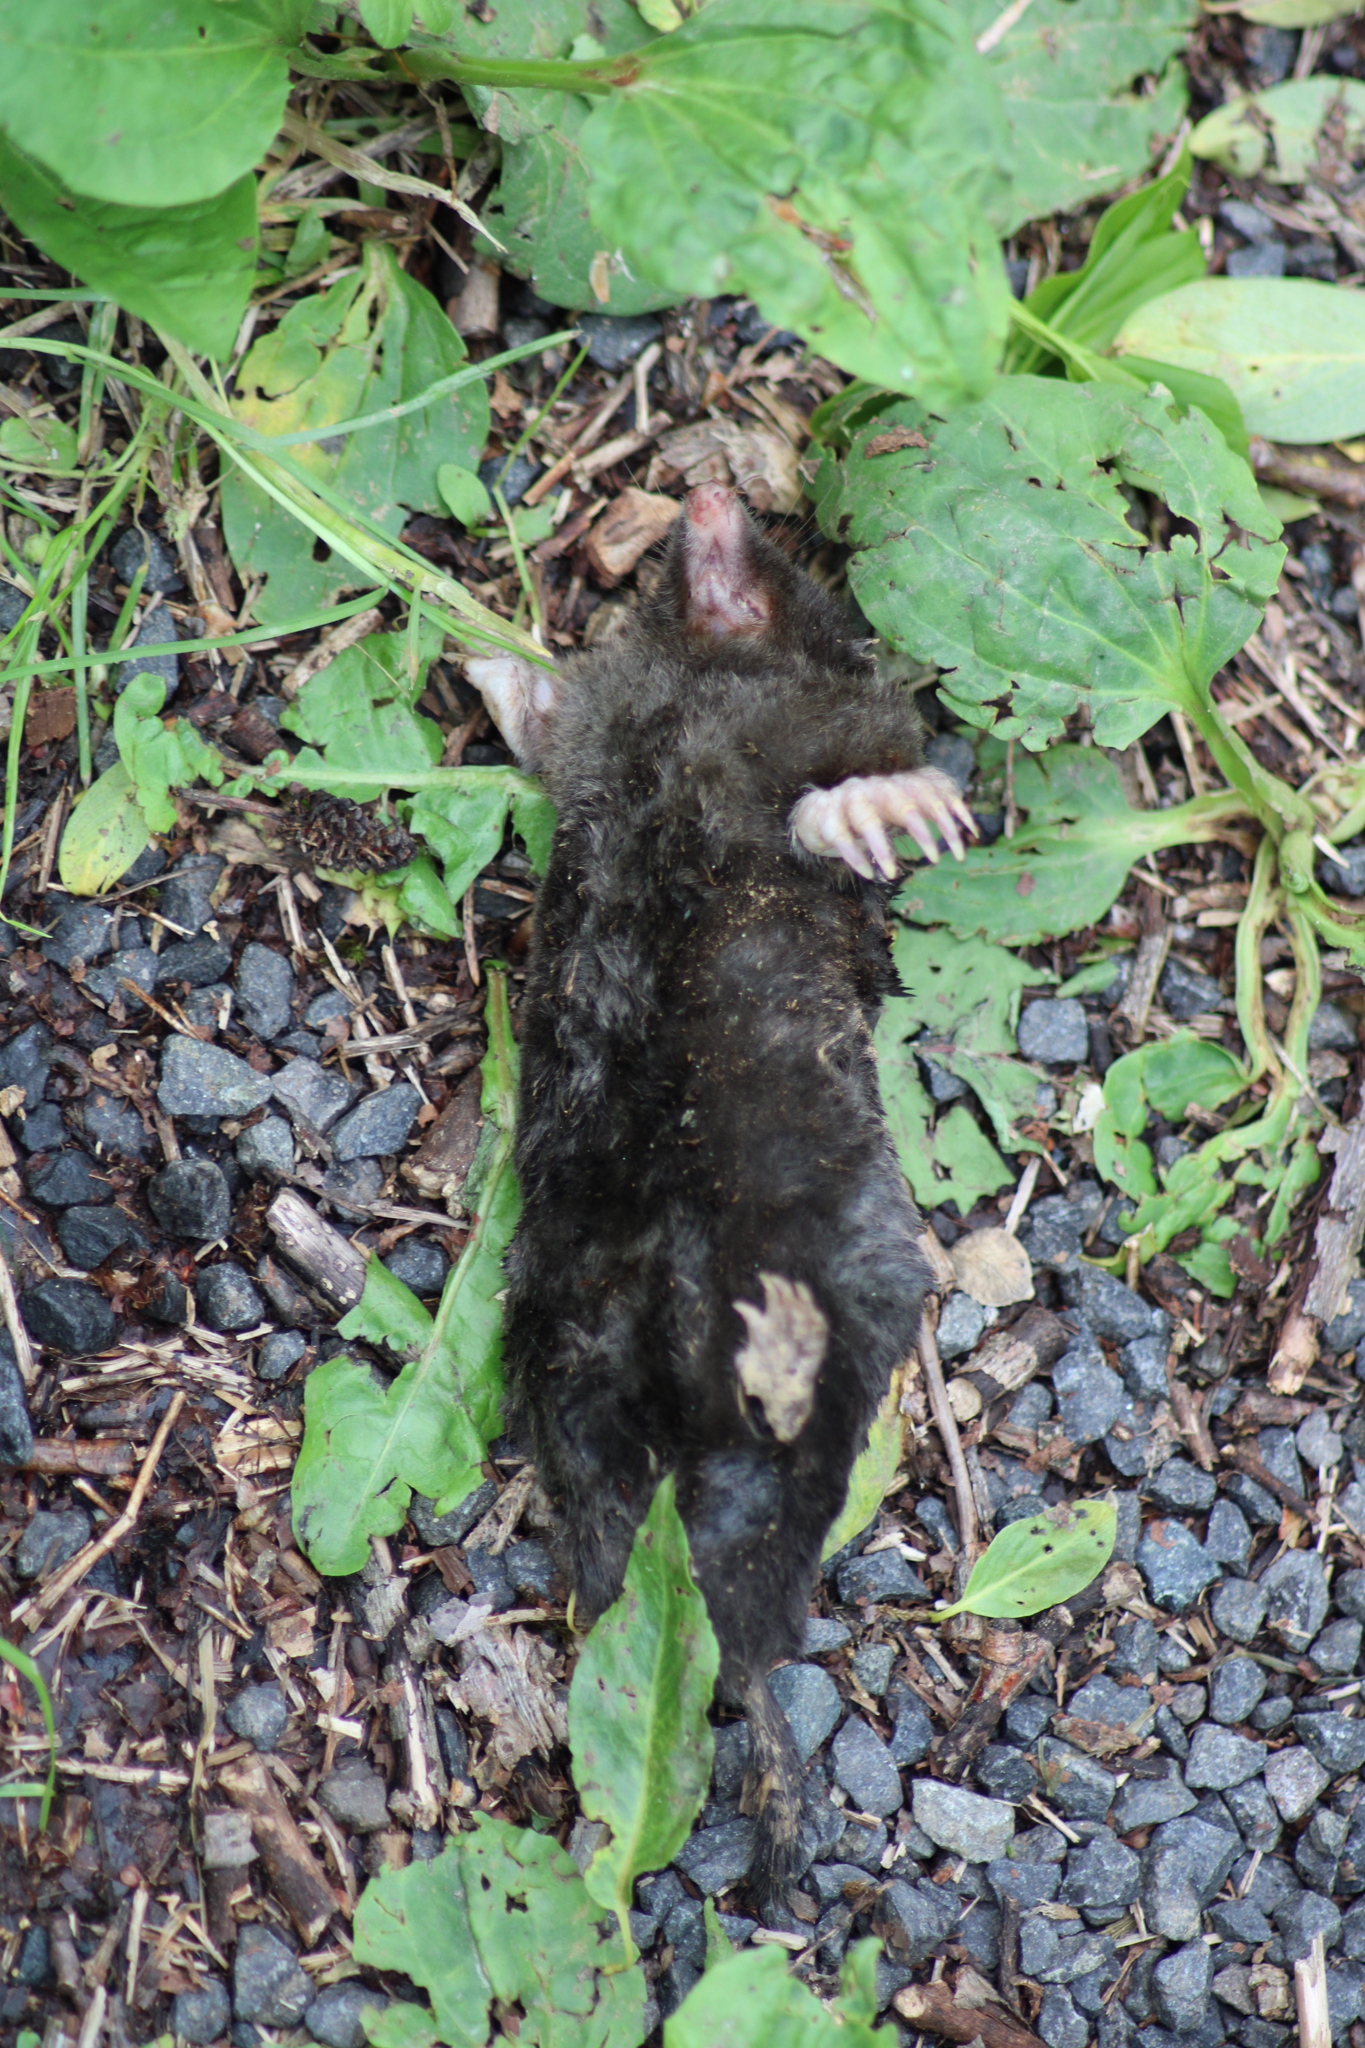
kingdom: Animalia
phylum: Chordata
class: Mammalia
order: Soricomorpha
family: Talpidae
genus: Talpa
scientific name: Talpa europaea
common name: European mole
